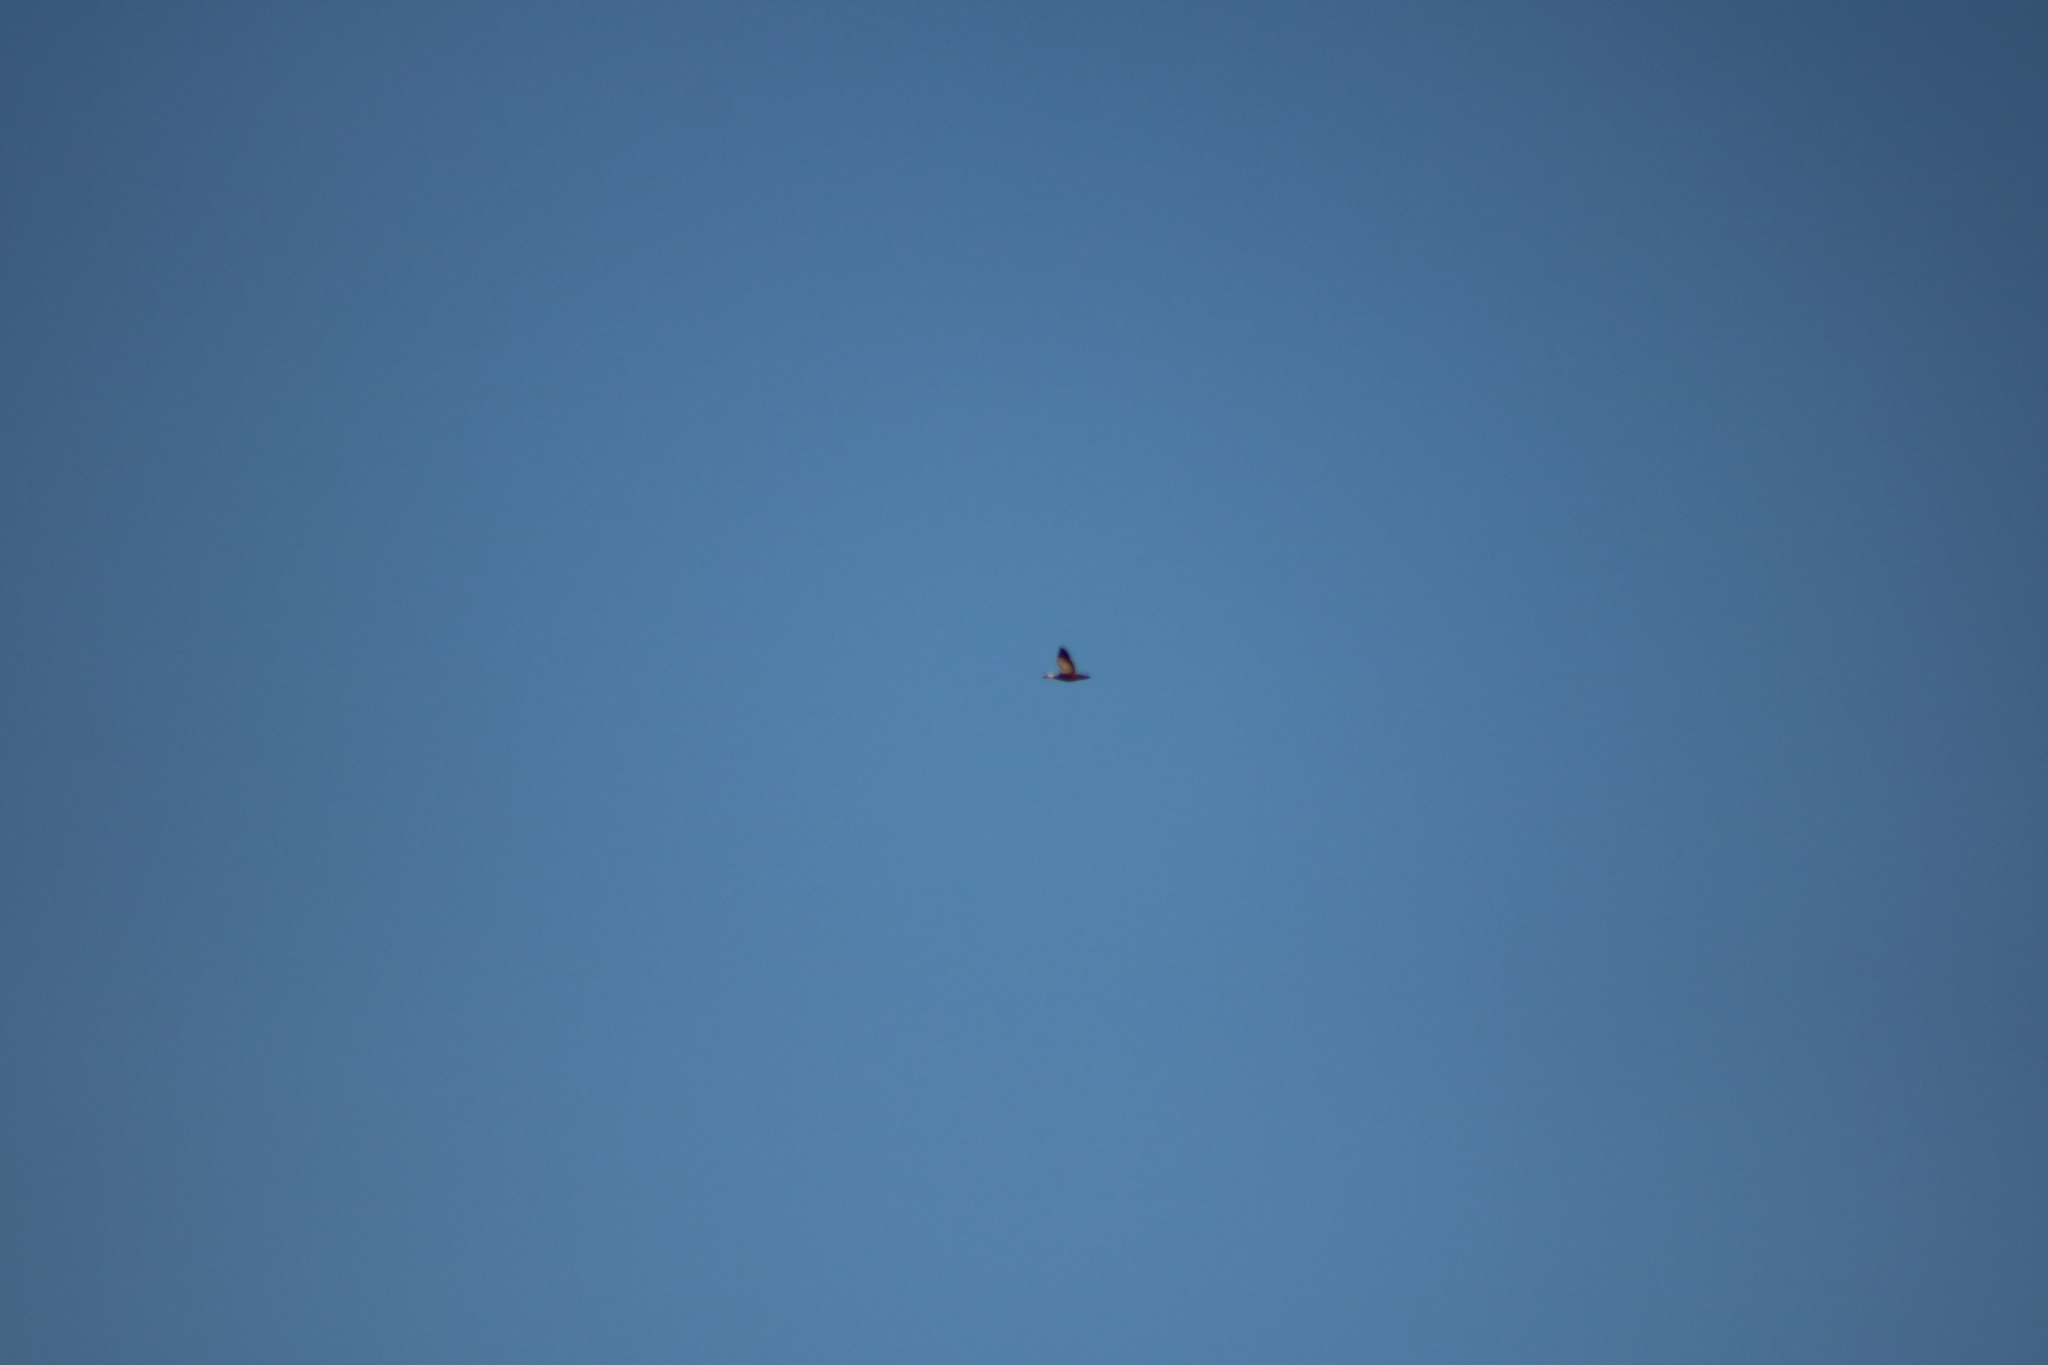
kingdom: Animalia
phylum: Chordata
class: Aves
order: Anseriformes
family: Anatidae
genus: Tadorna
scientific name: Tadorna ferruginea
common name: Ruddy shelduck
